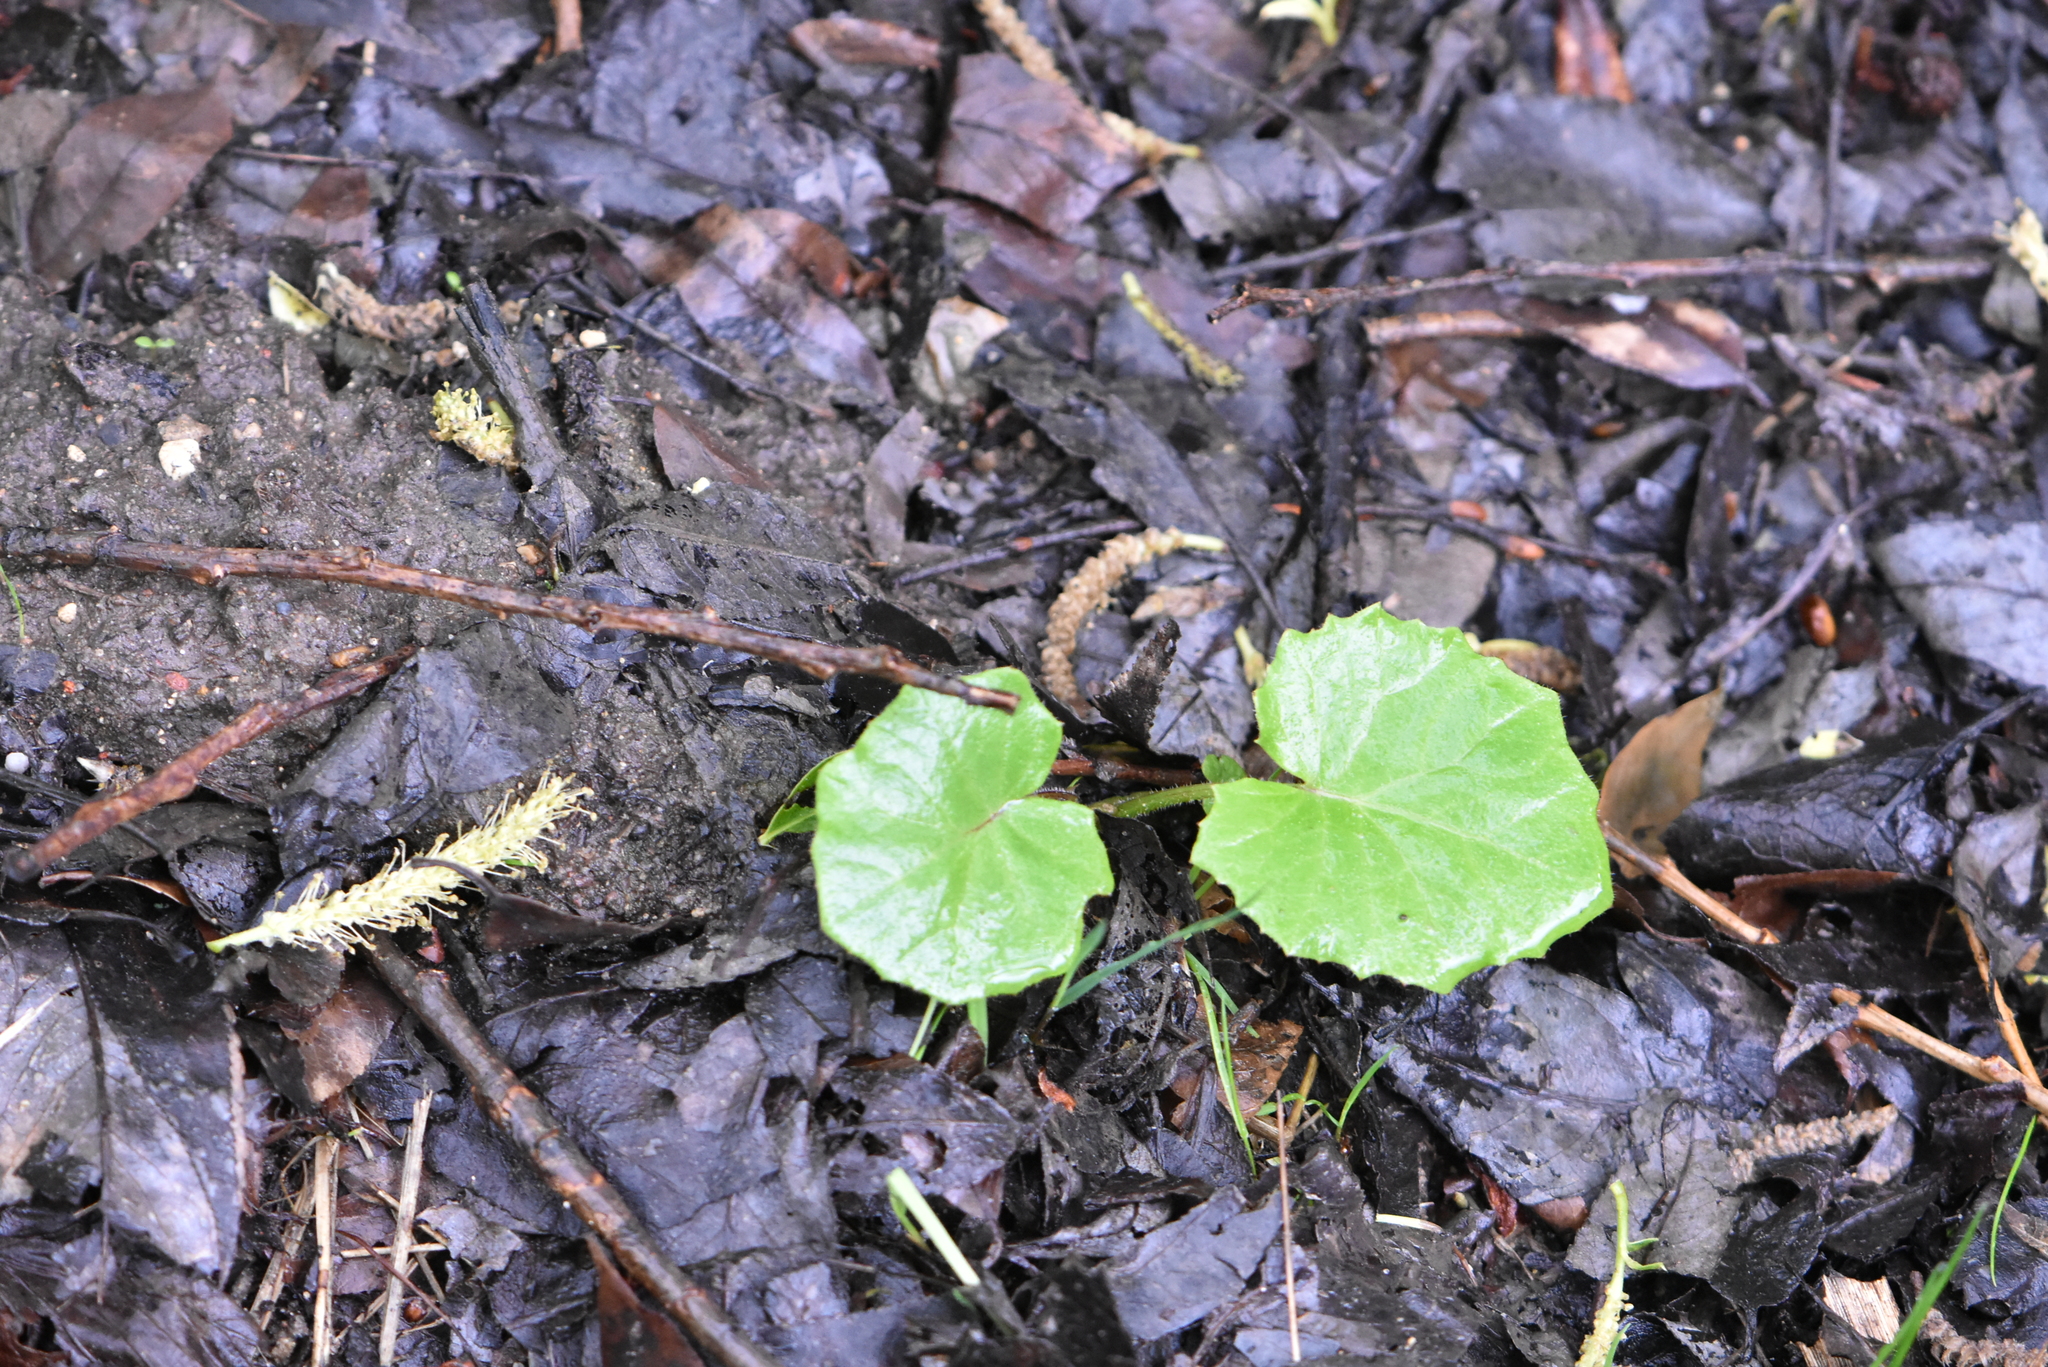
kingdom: Plantae
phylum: Tracheophyta
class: Magnoliopsida
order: Asterales
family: Asteraceae
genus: Tussilago
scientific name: Tussilago farfara
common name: Coltsfoot
